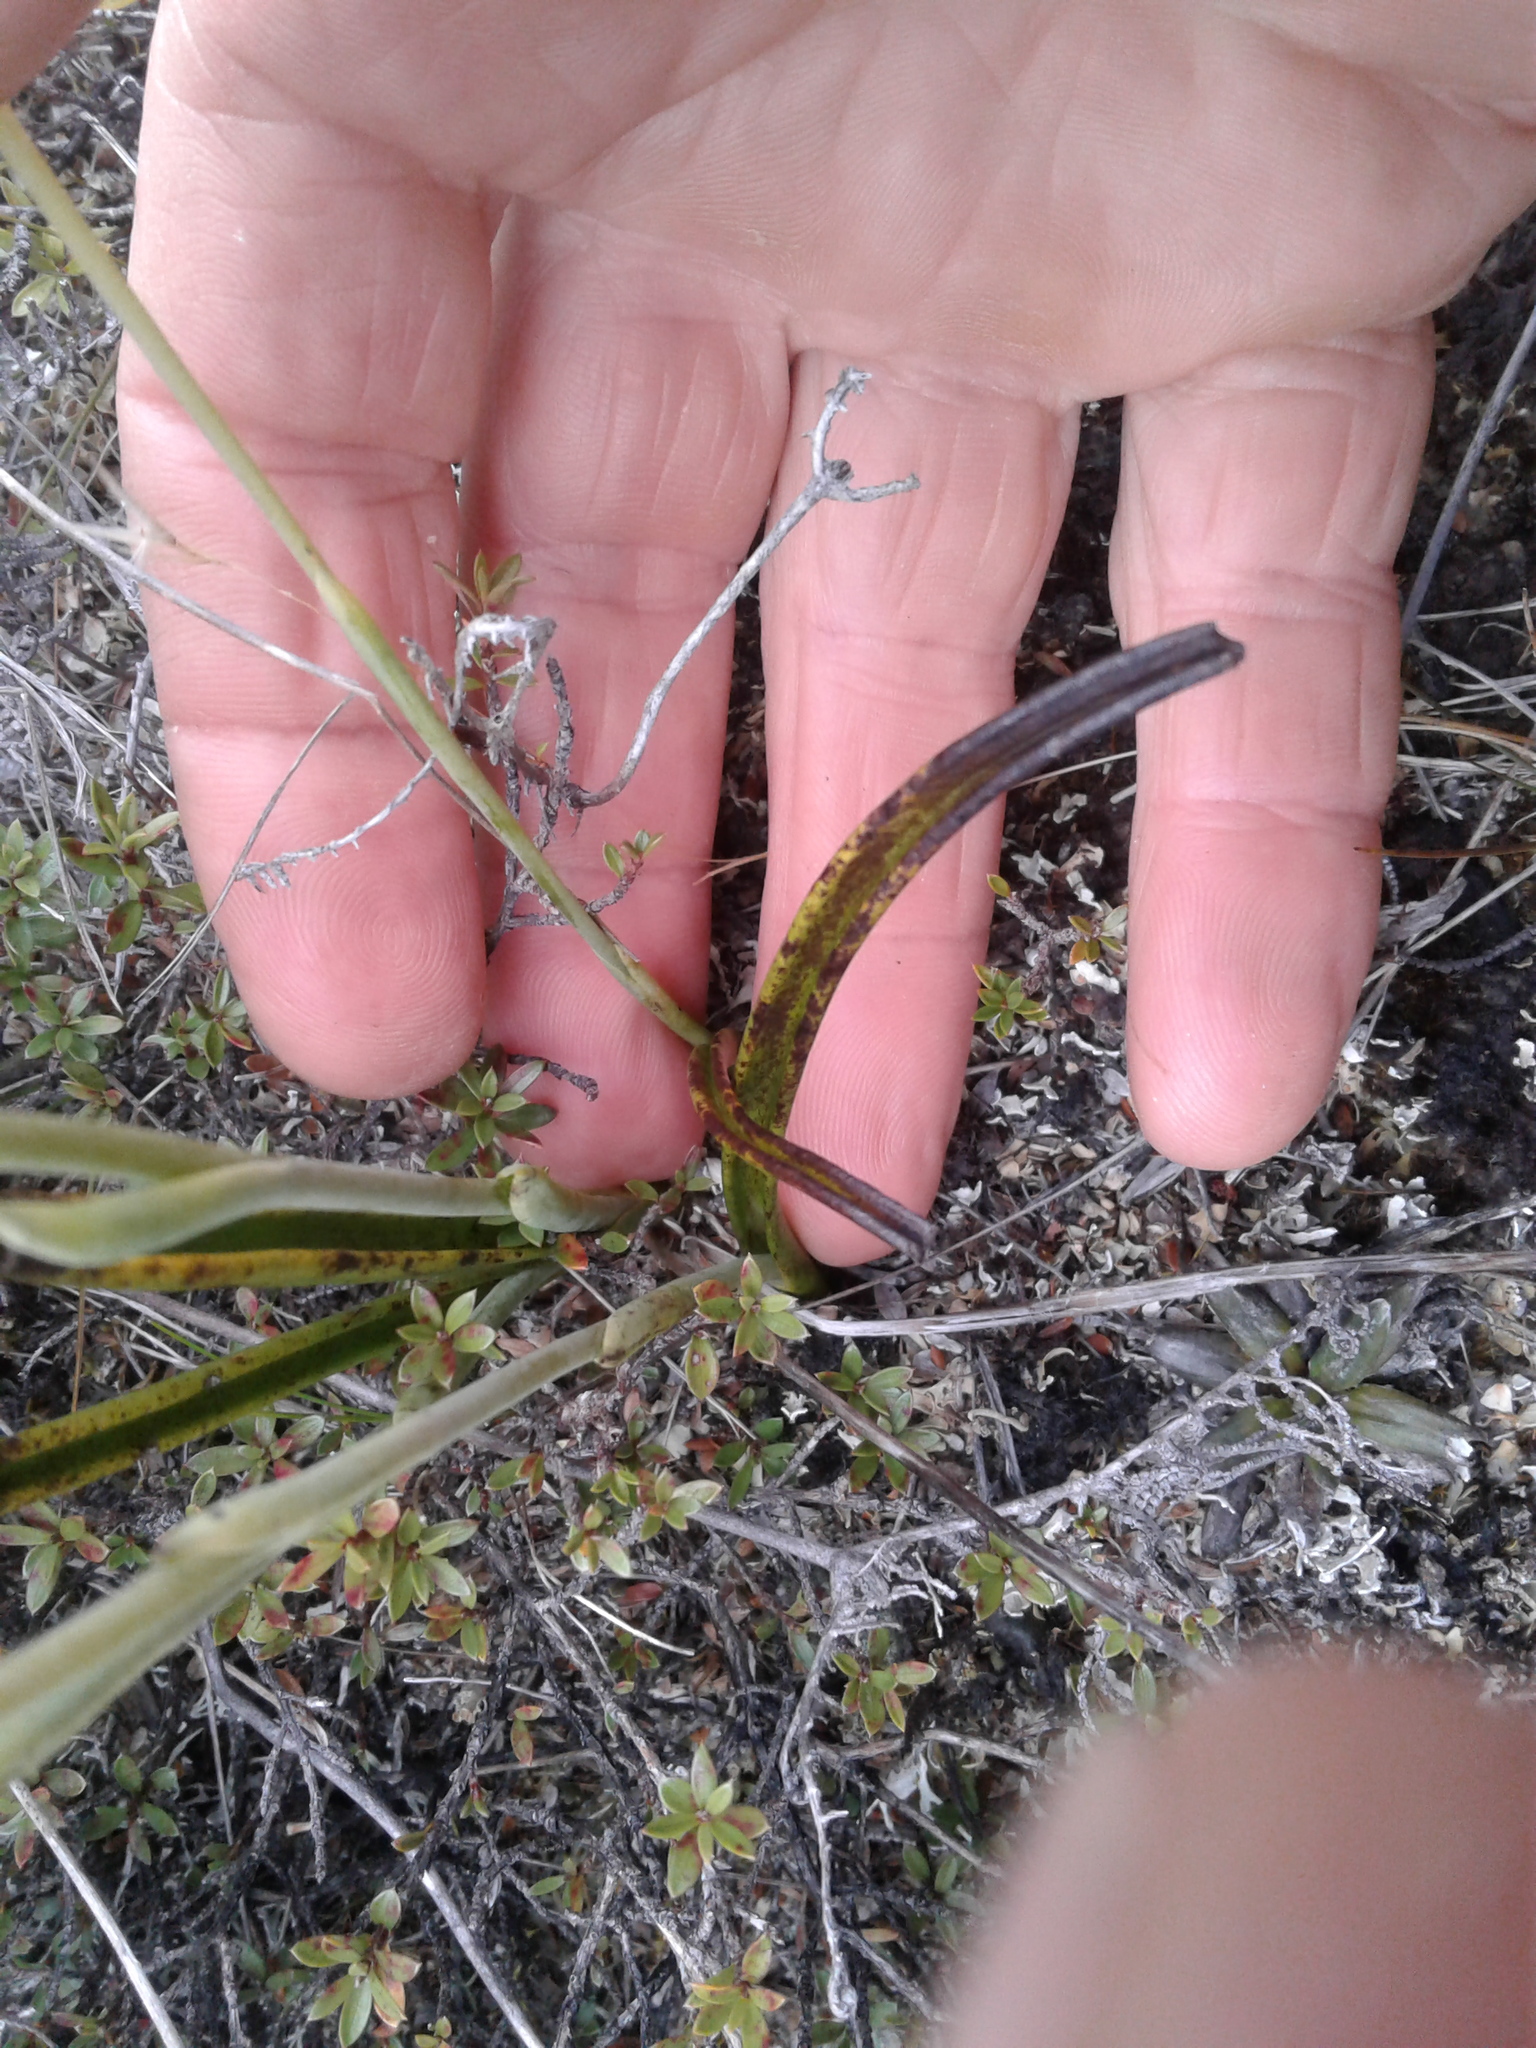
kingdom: Plantae
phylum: Tracheophyta
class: Liliopsida
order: Asparagales
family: Orchidaceae
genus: Thelymitra
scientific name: Thelymitra
